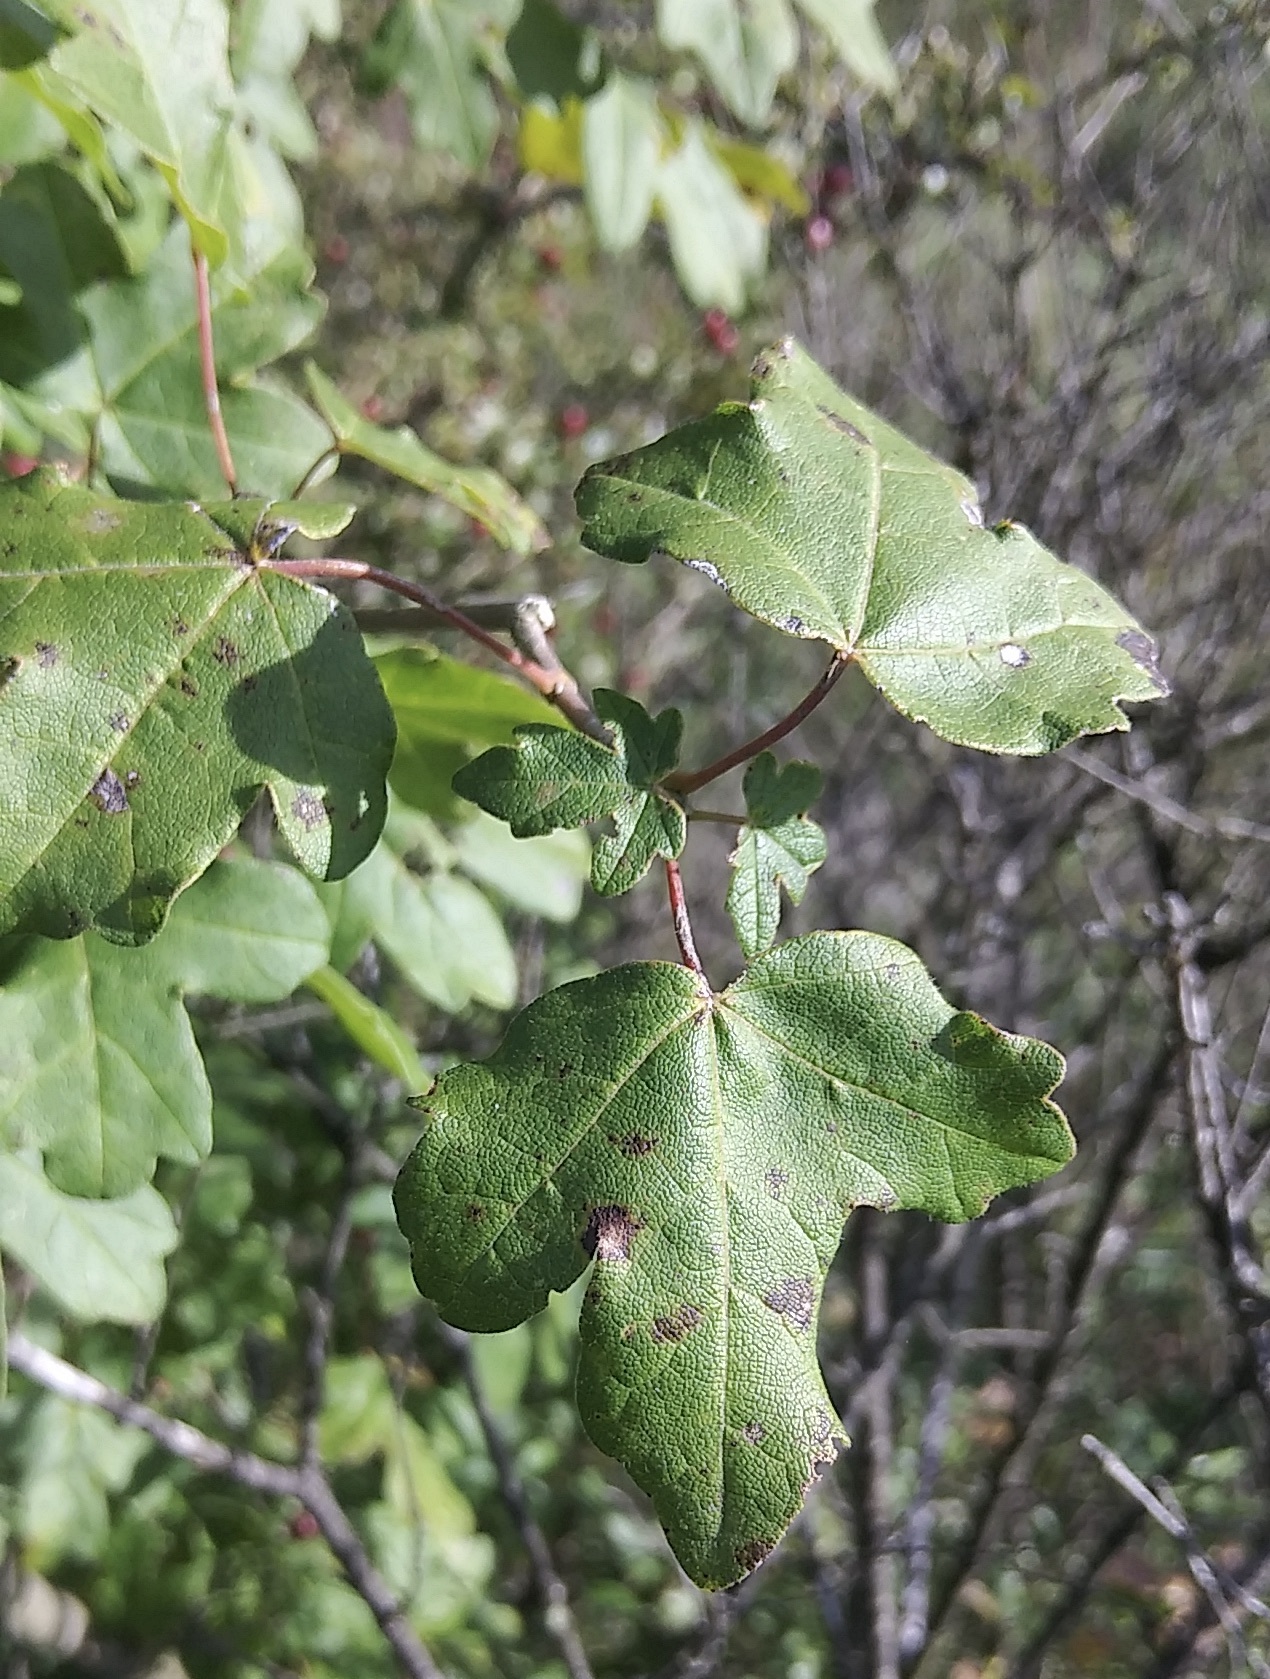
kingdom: Plantae
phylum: Tracheophyta
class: Magnoliopsida
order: Sapindales
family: Sapindaceae
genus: Acer
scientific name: Acer campestre
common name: Field maple
